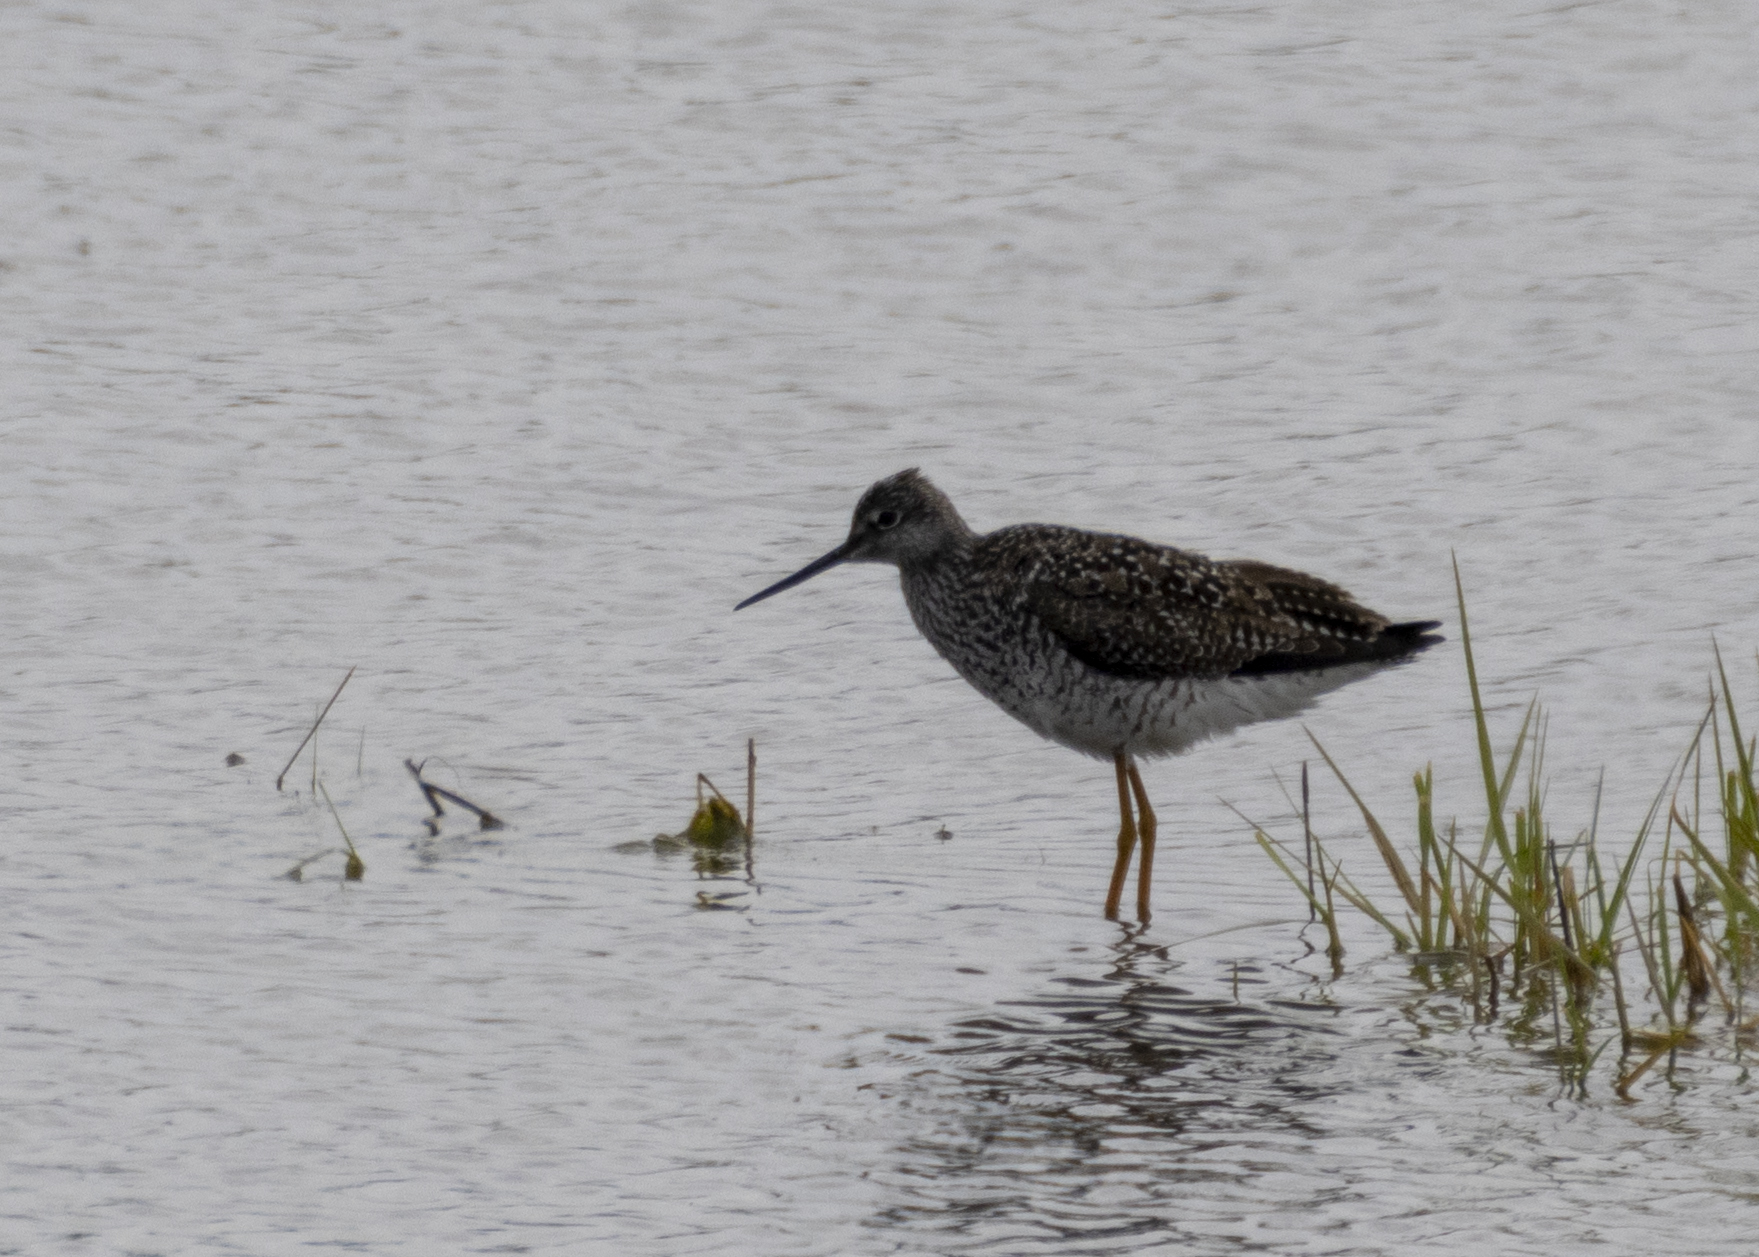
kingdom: Animalia
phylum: Chordata
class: Aves
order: Charadriiformes
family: Scolopacidae
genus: Tringa
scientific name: Tringa melanoleuca
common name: Greater yellowlegs
